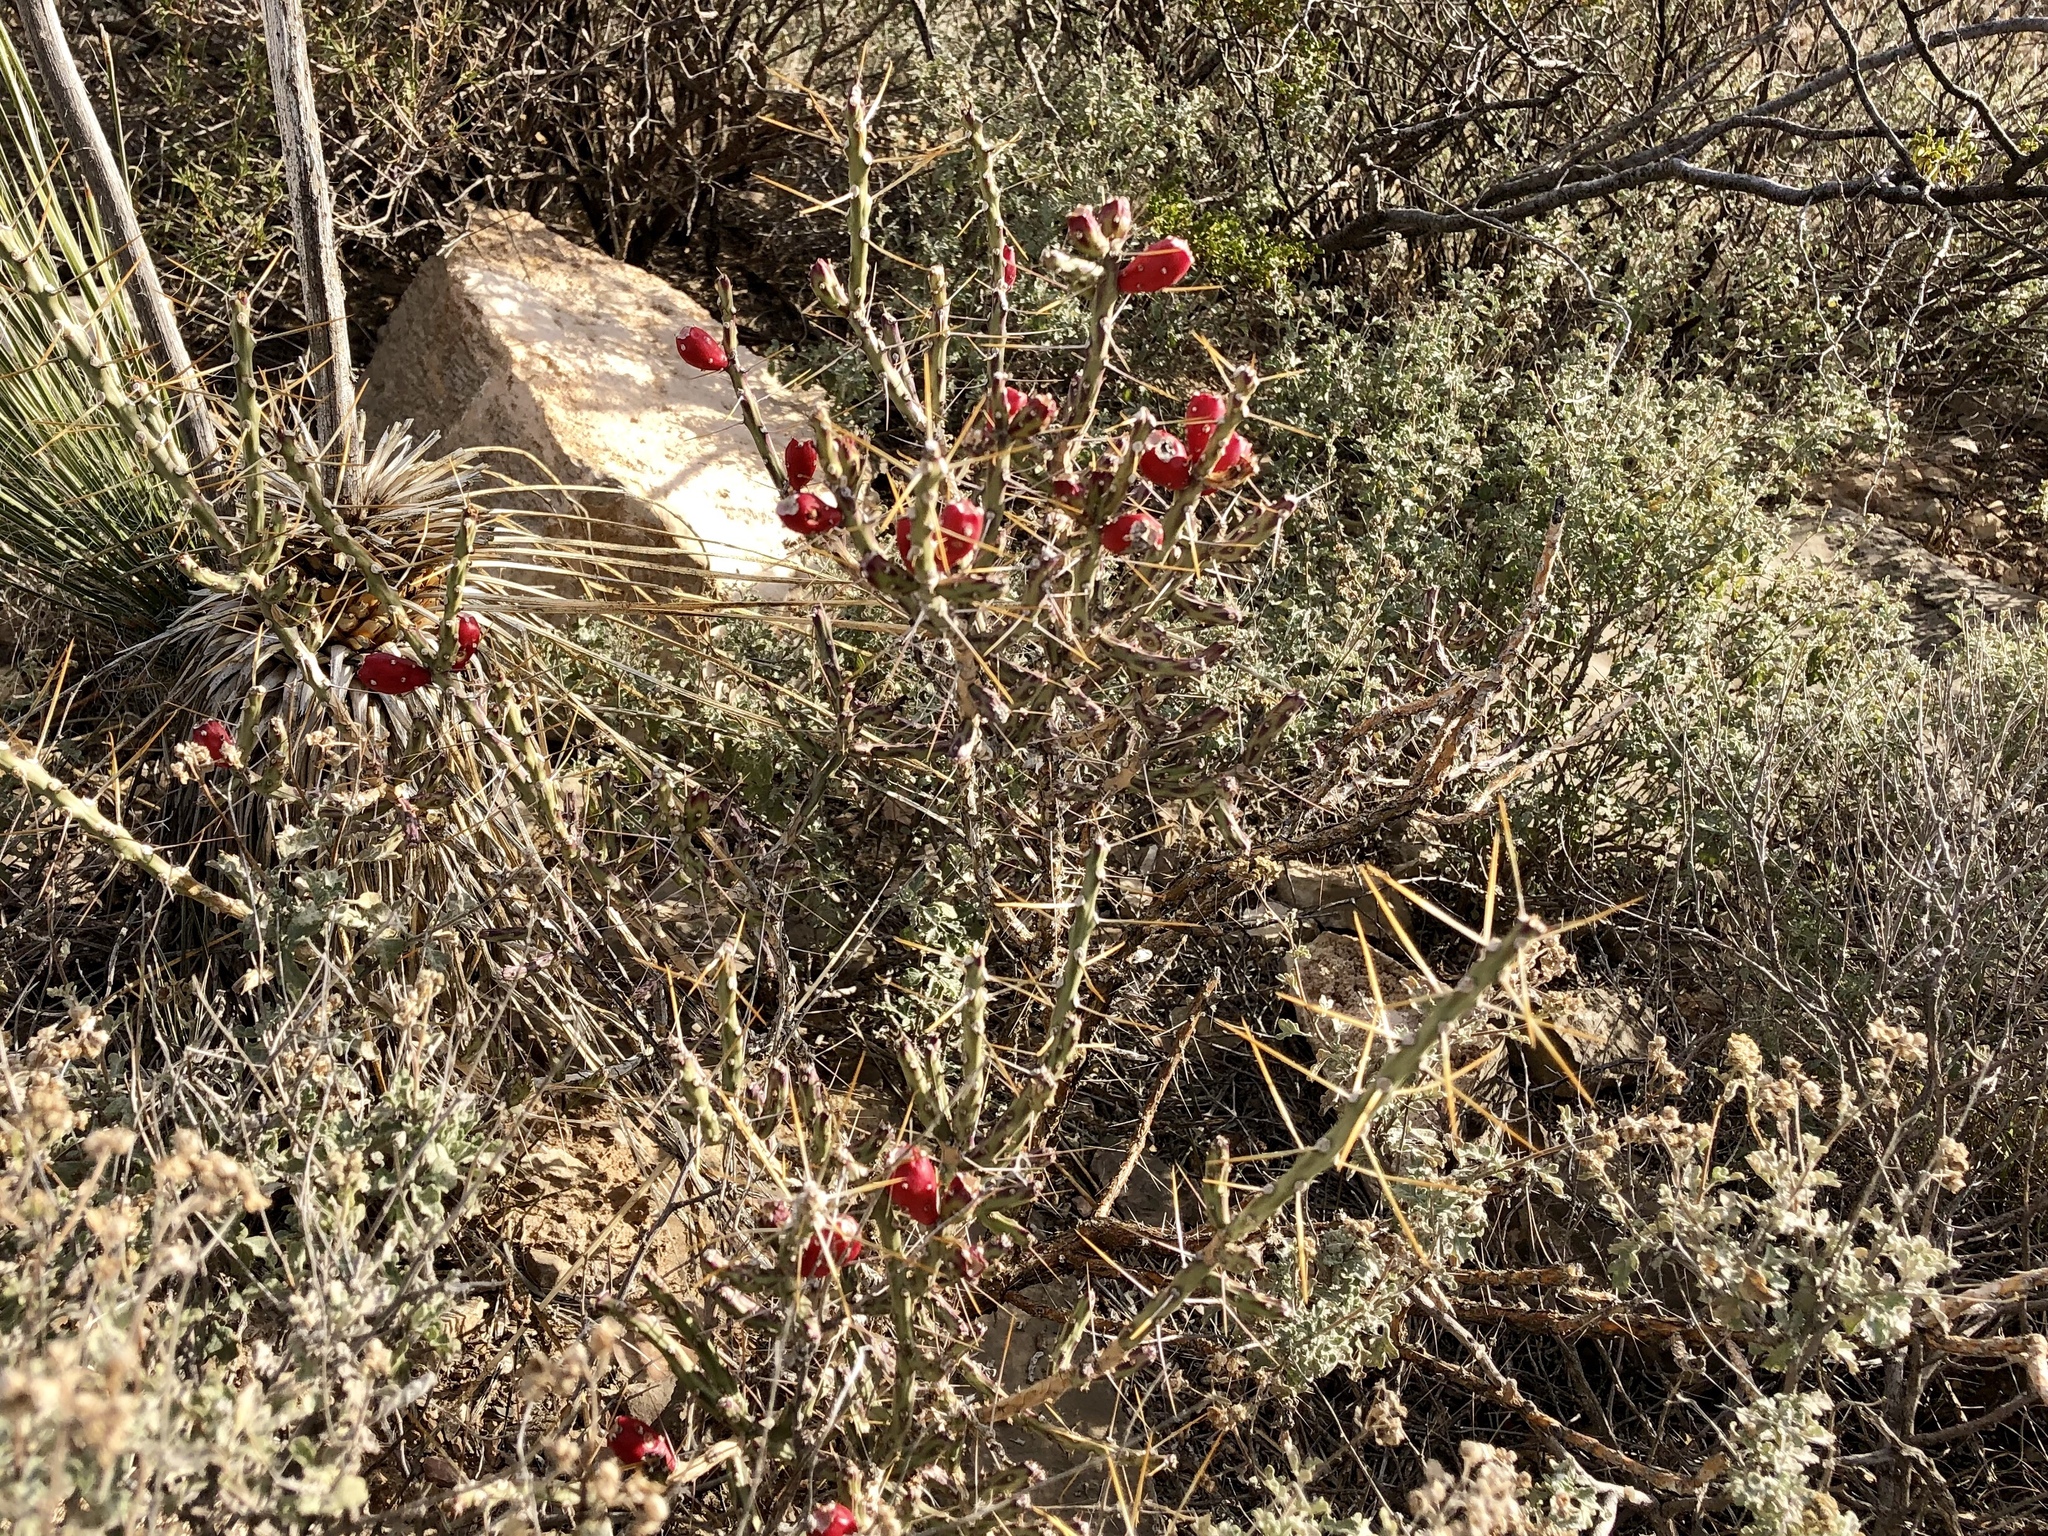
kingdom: Plantae
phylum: Tracheophyta
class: Magnoliopsida
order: Caryophyllales
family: Cactaceae
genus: Cylindropuntia
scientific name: Cylindropuntia leptocaulis
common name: Christmas cactus
